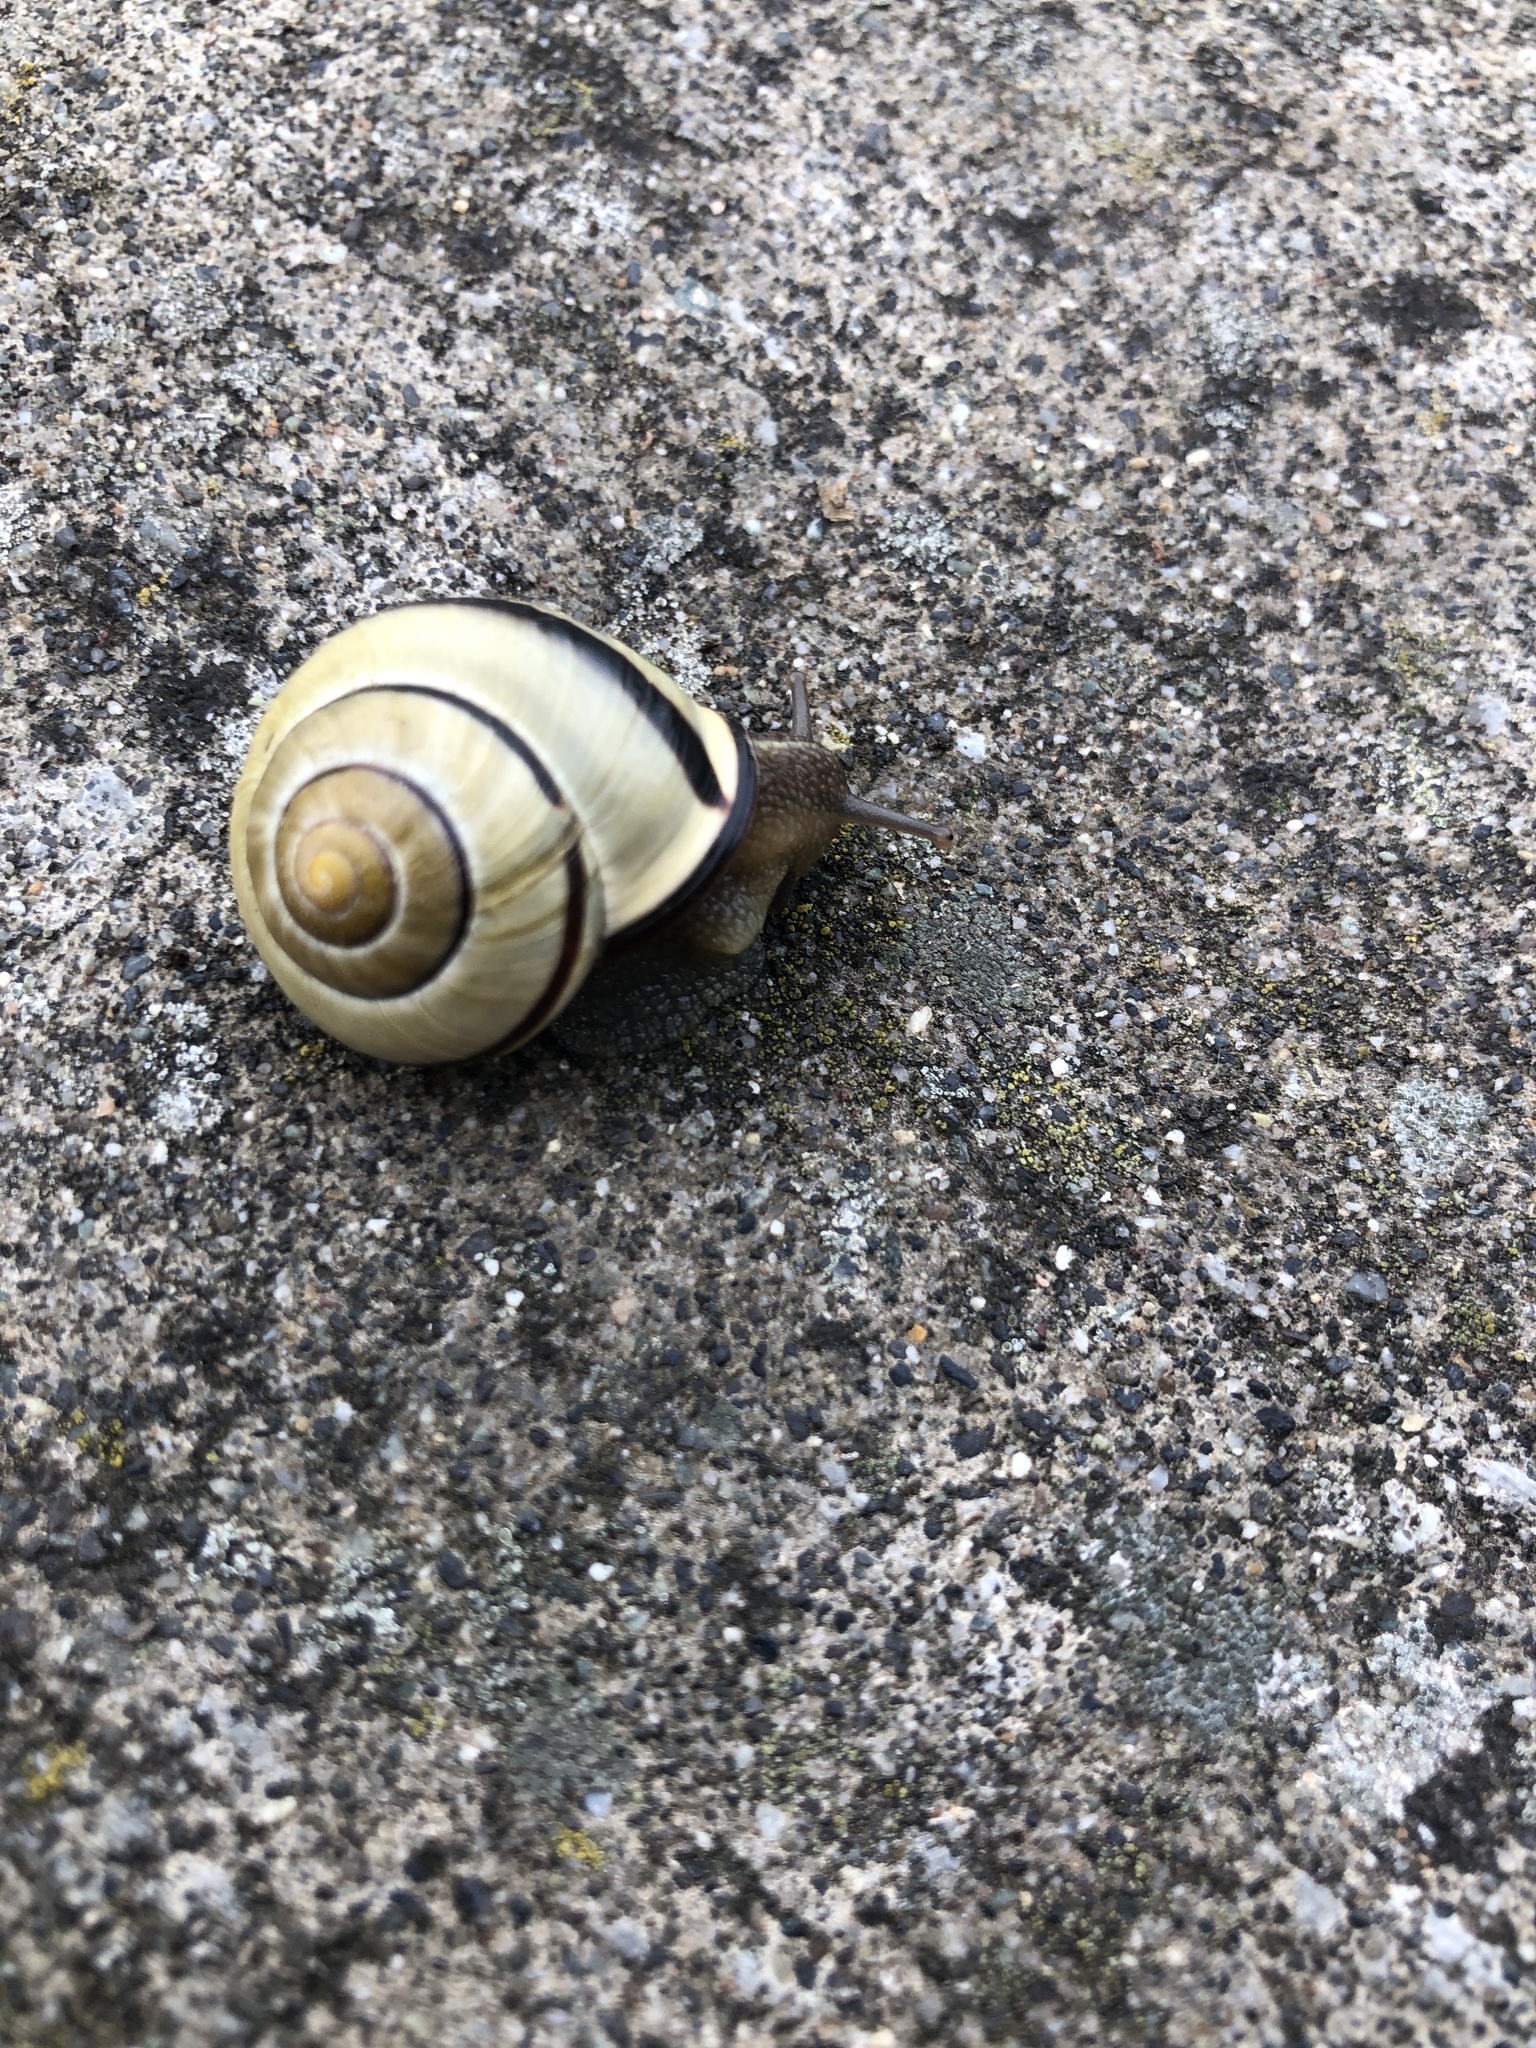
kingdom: Animalia
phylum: Mollusca
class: Gastropoda
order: Stylommatophora
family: Helicidae
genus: Cepaea
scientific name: Cepaea nemoralis
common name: Grovesnail
